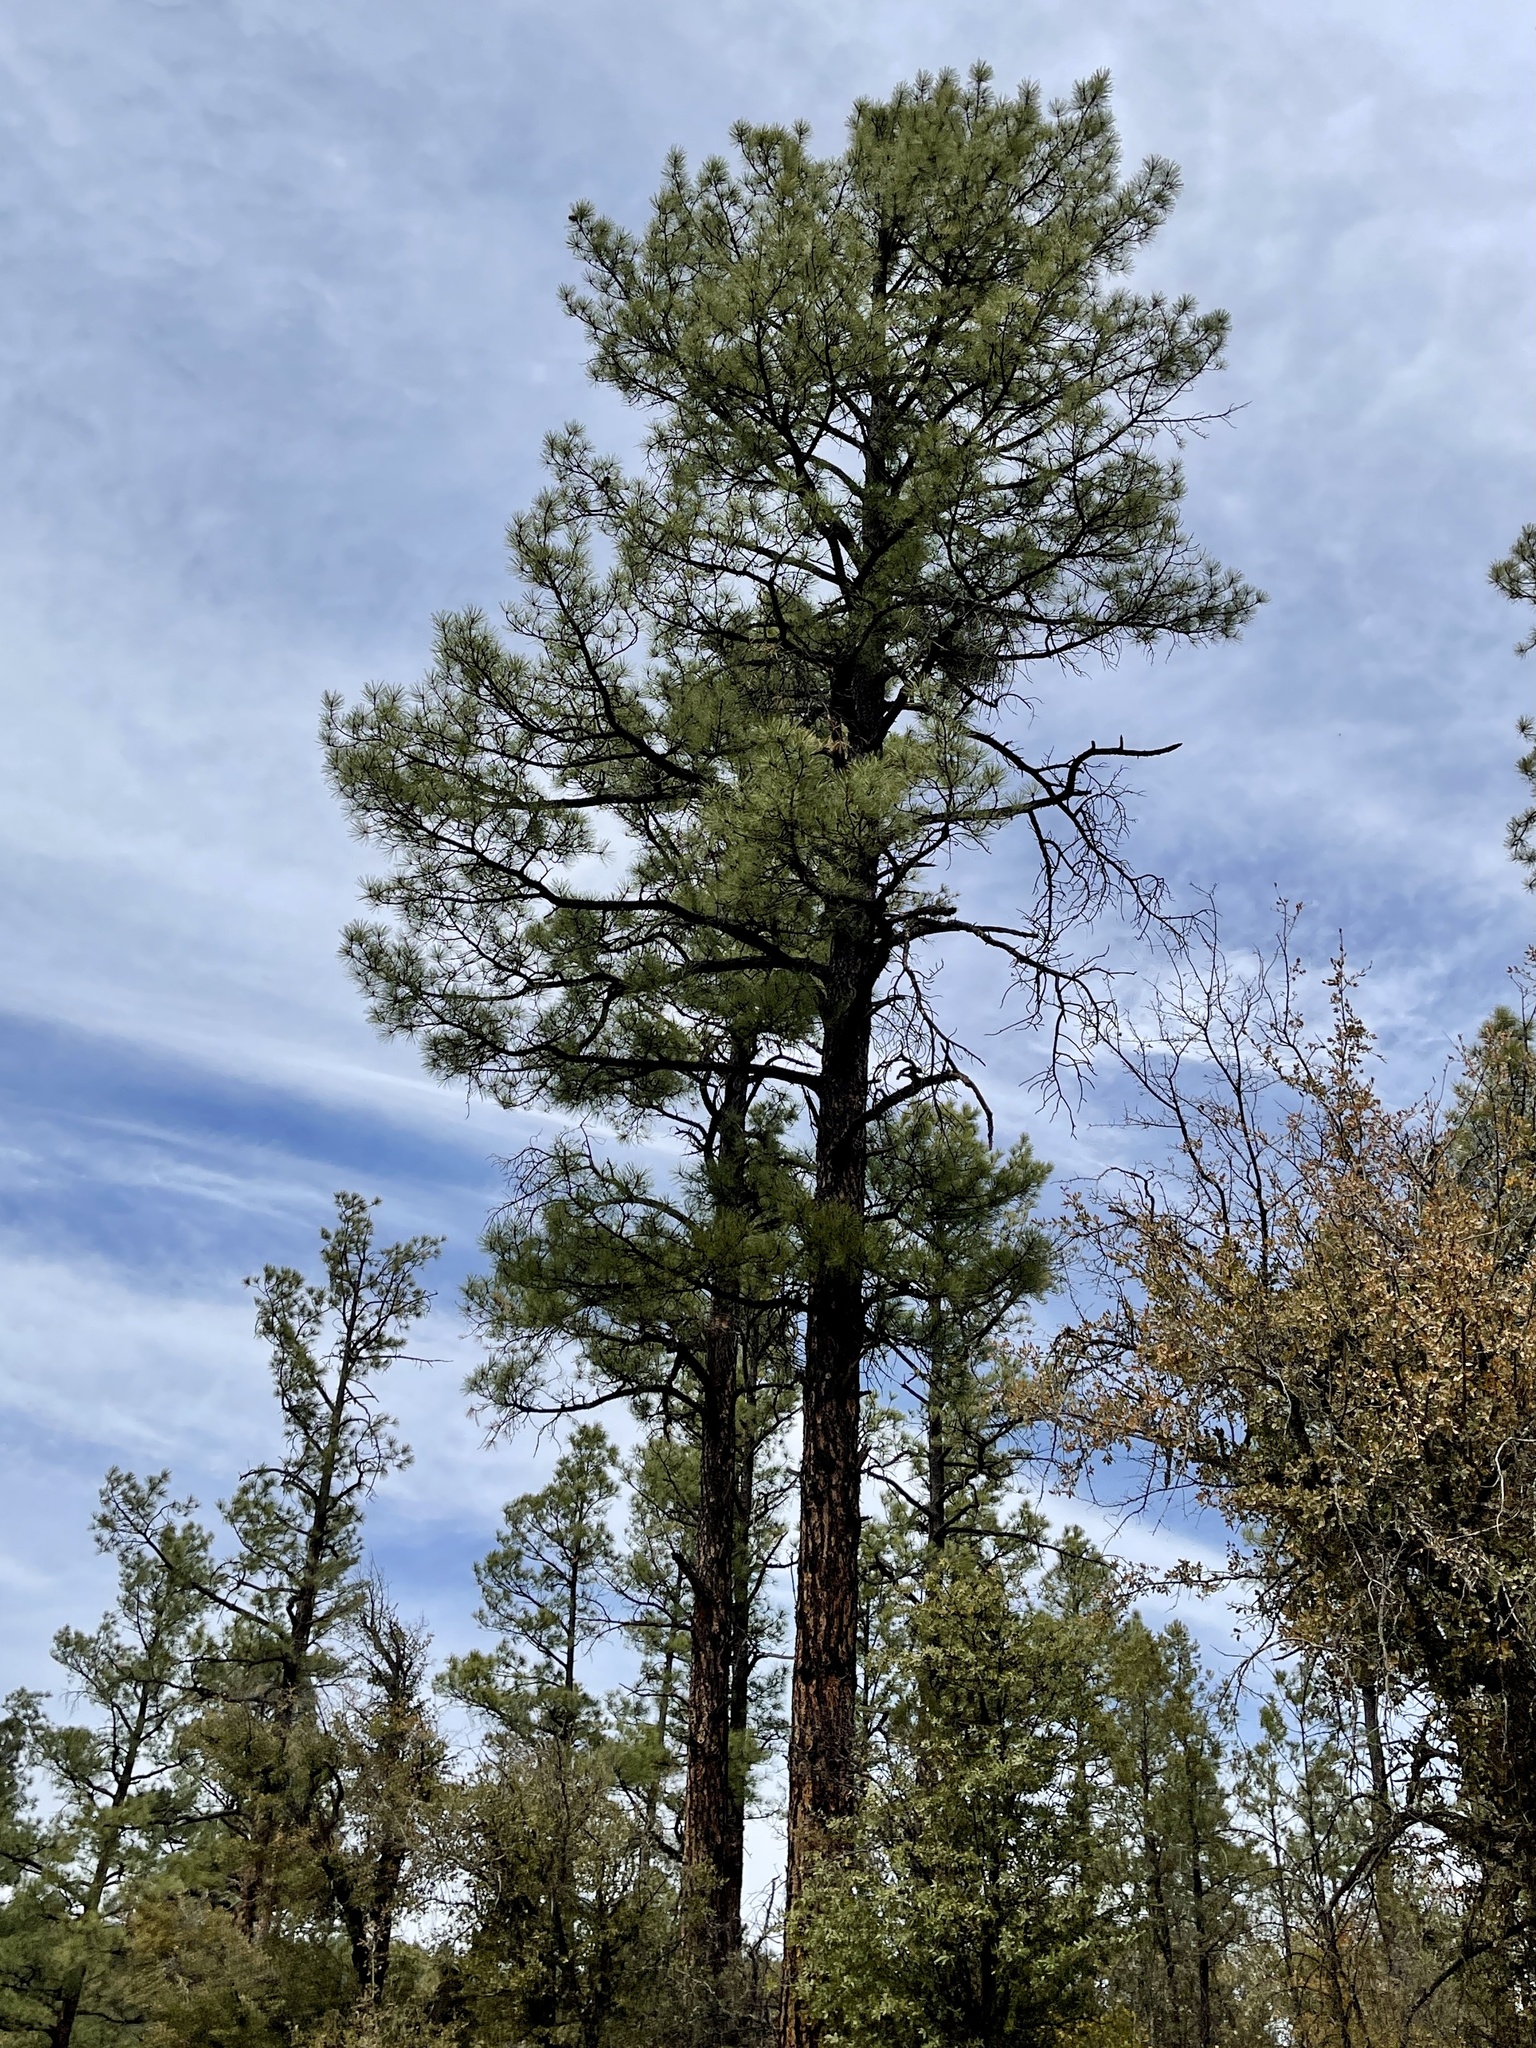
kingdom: Plantae
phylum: Tracheophyta
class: Pinopsida
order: Pinales
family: Pinaceae
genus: Pinus
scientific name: Pinus ponderosa
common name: Western yellow-pine
